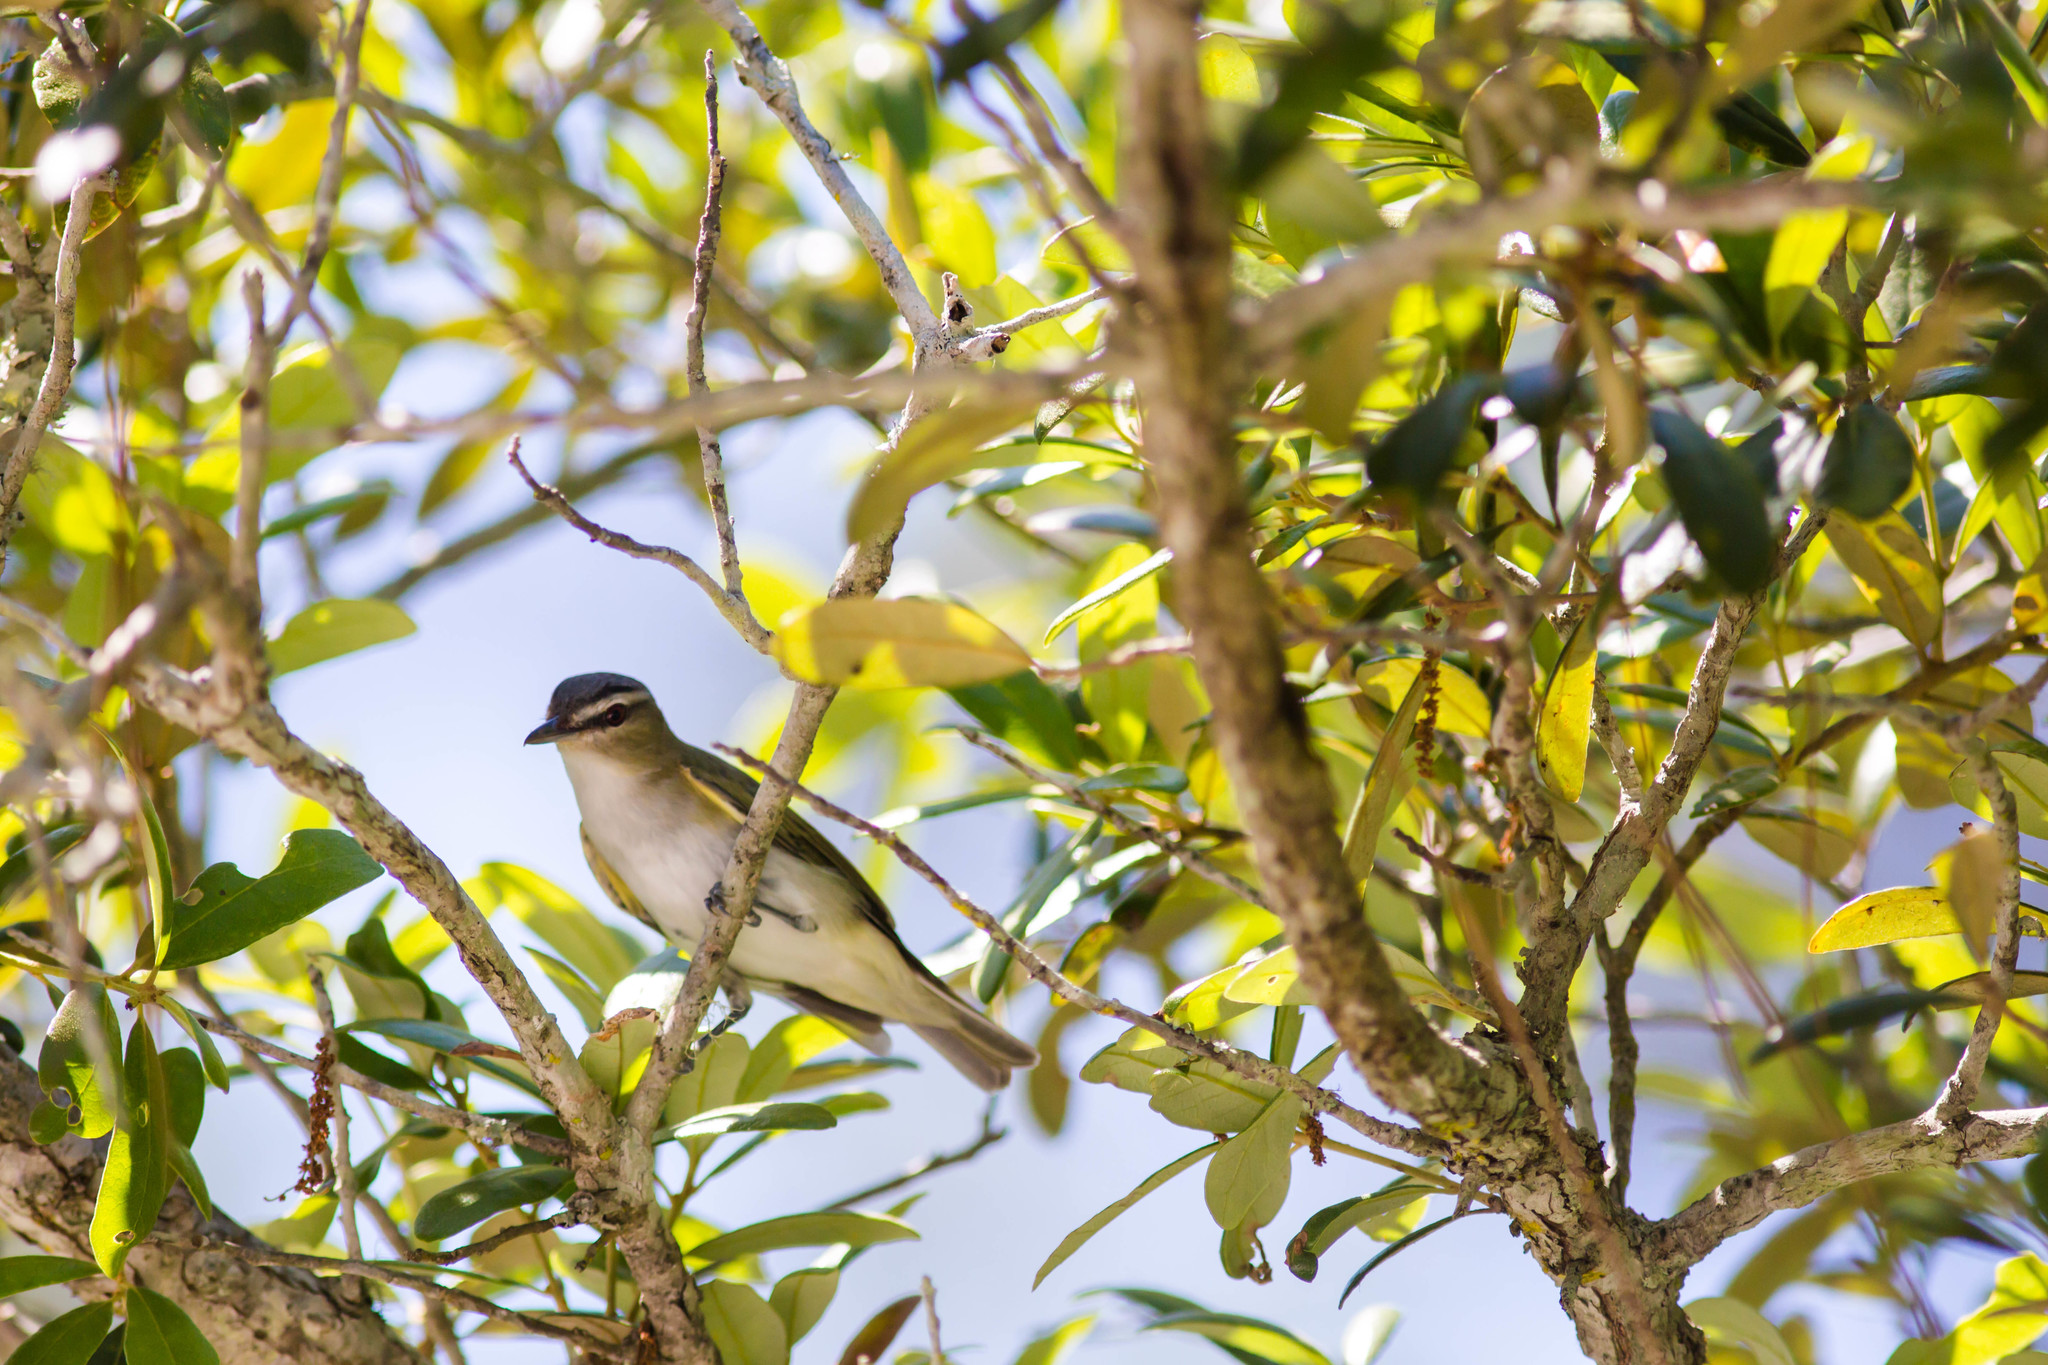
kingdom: Animalia
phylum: Chordata
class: Aves
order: Passeriformes
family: Vireonidae
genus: Vireo
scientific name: Vireo olivaceus
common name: Red-eyed vireo
